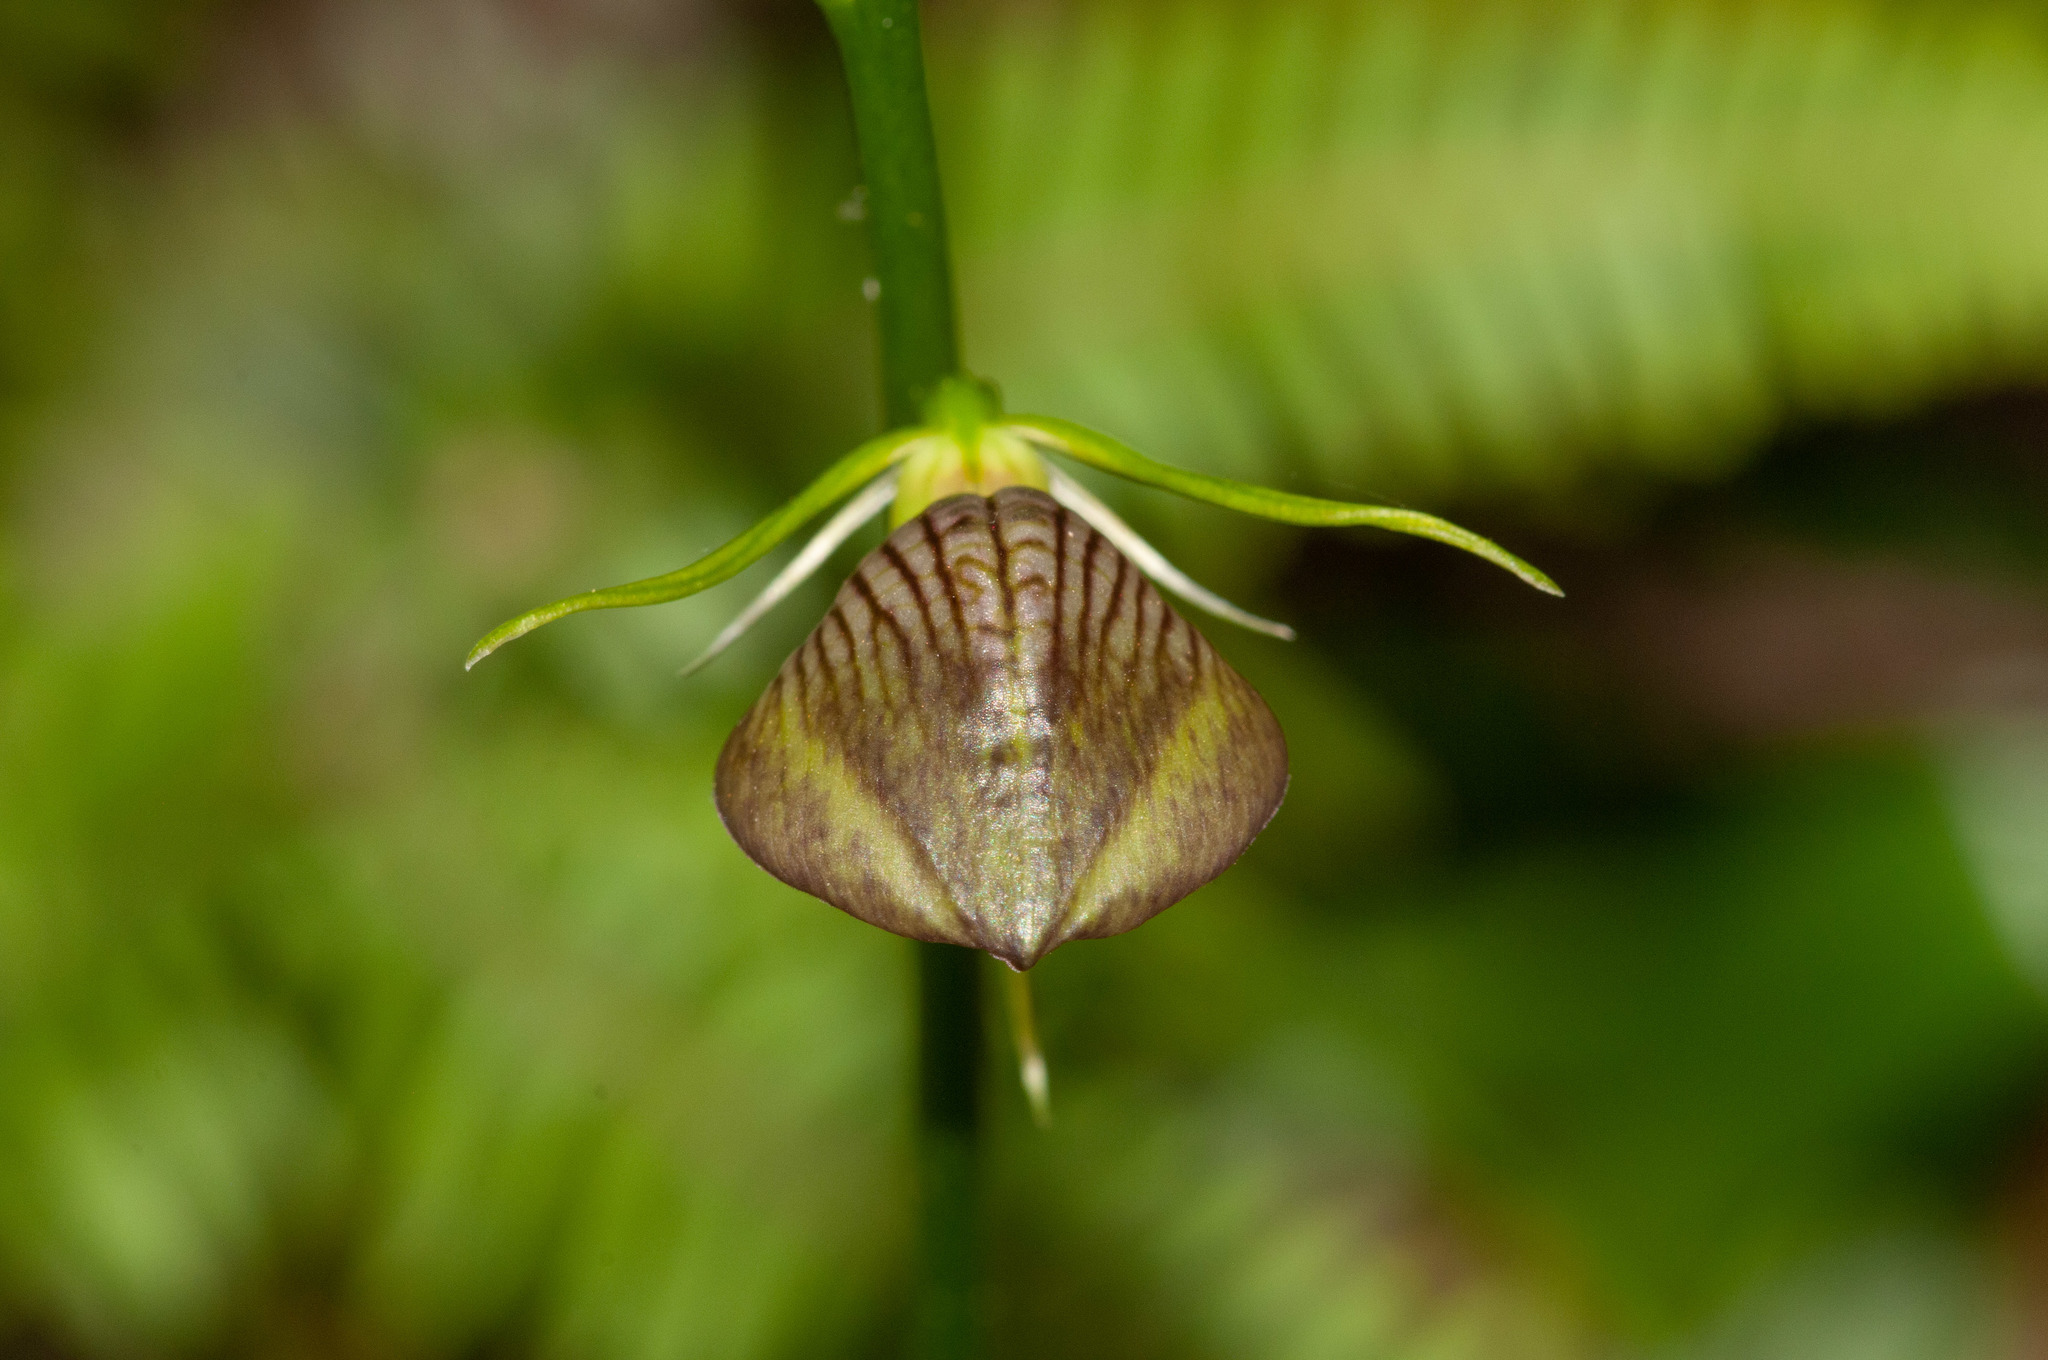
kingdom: Plantae
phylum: Tracheophyta
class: Liliopsida
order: Asparagales
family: Orchidaceae
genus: Cryptostylis
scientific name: Cryptostylis erecta
